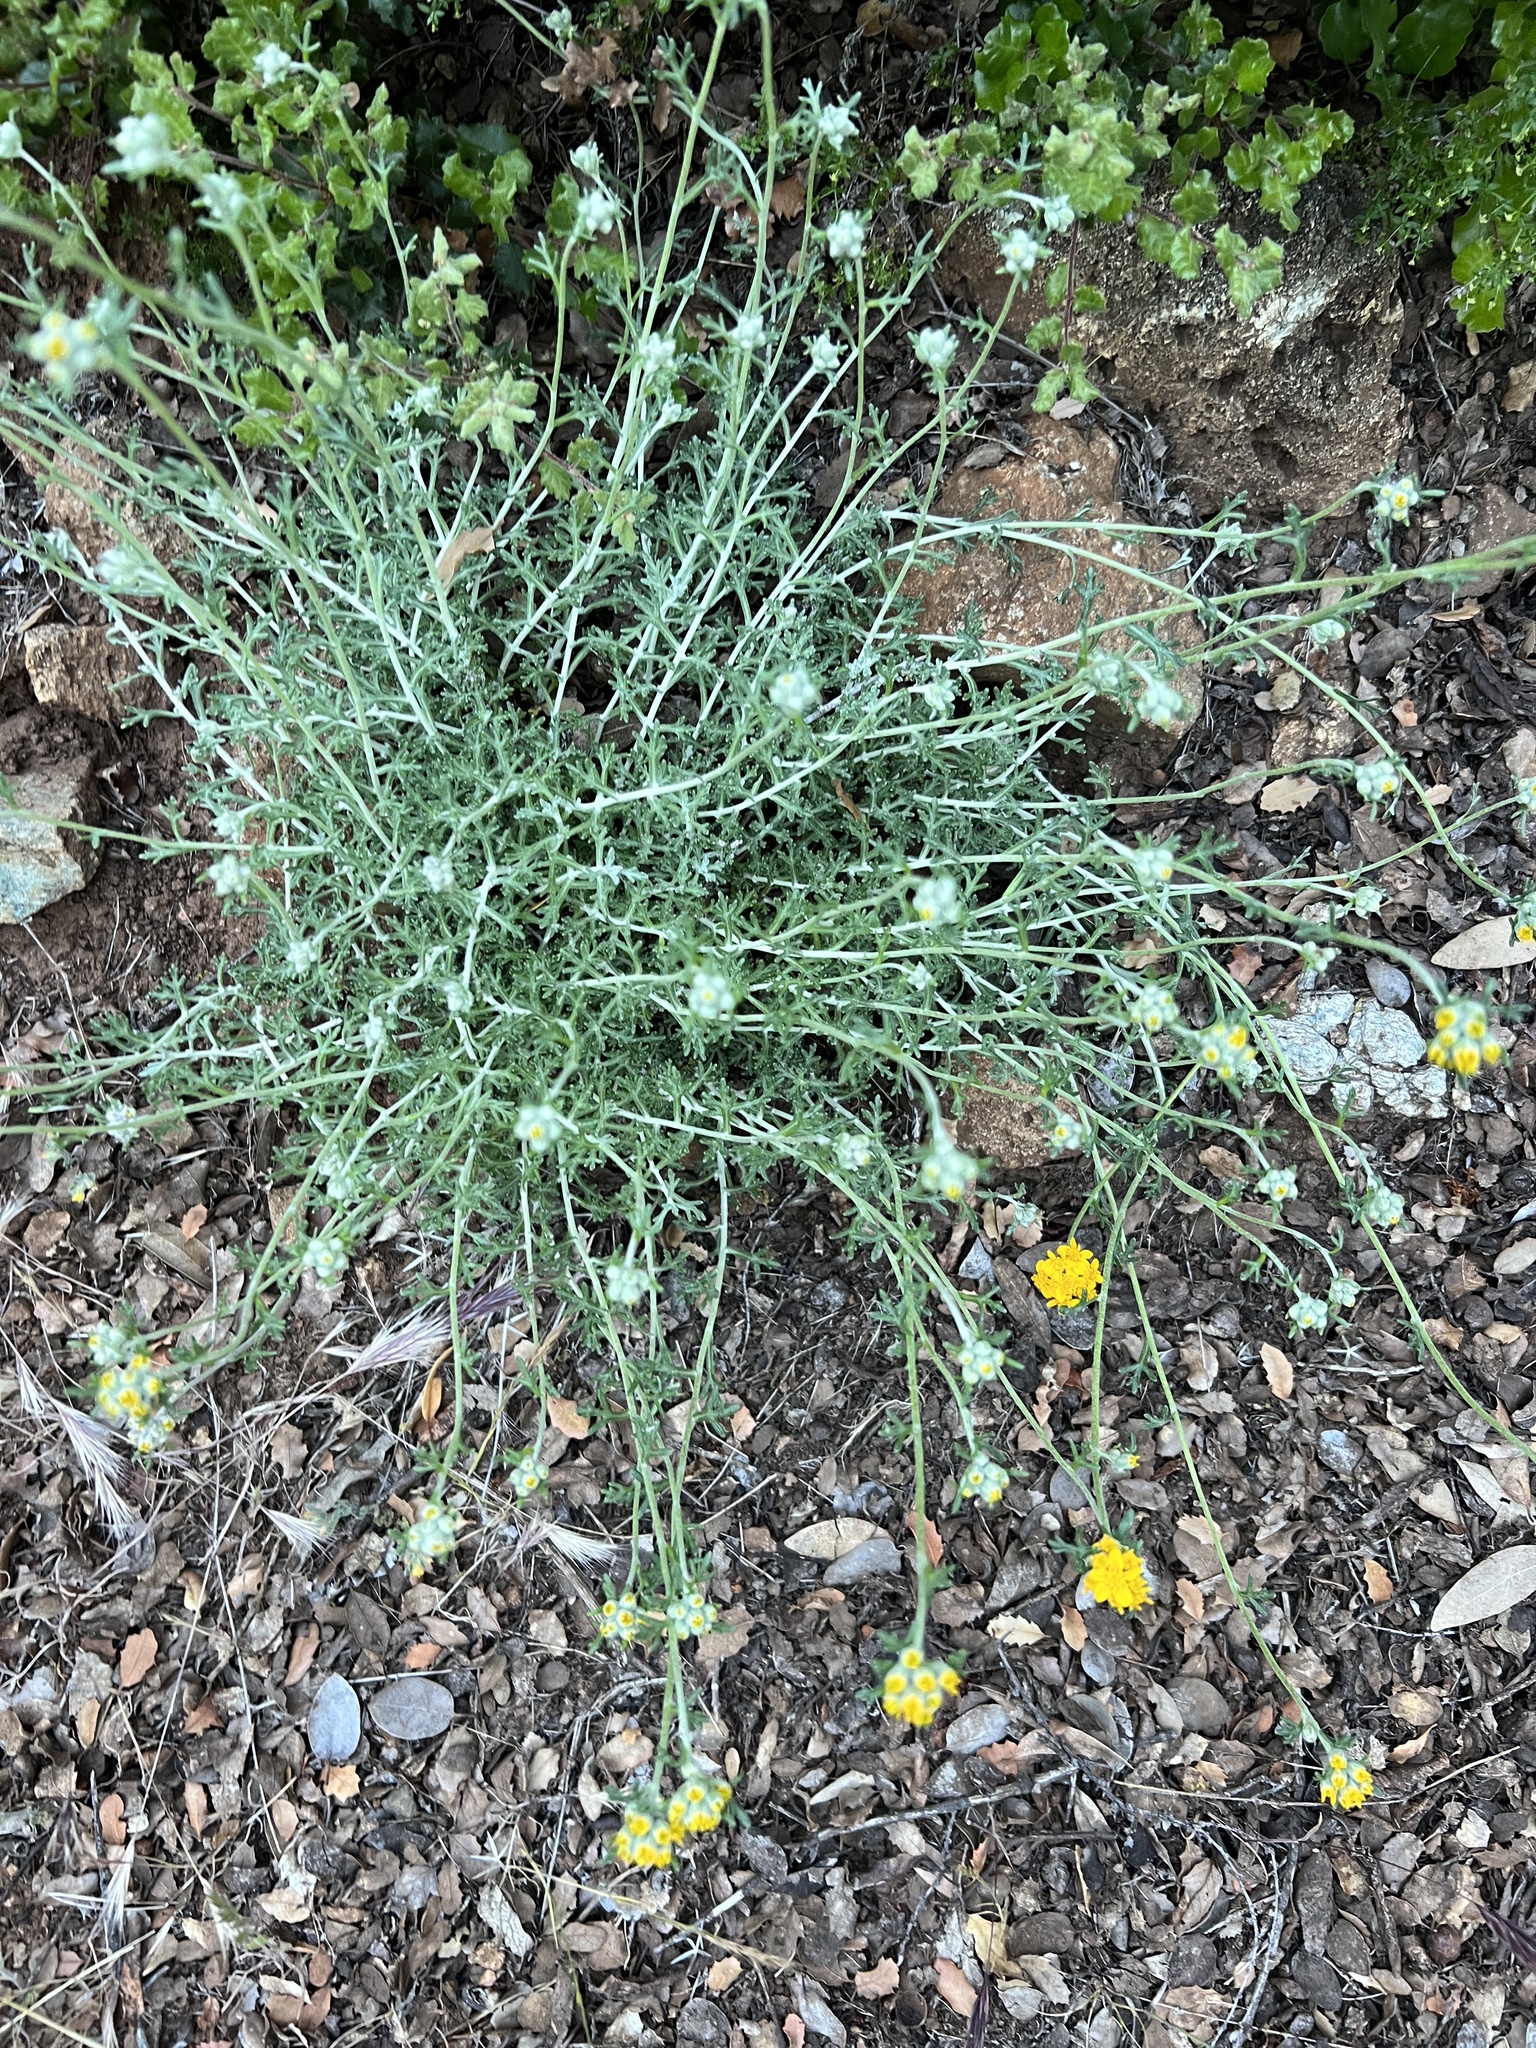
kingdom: Plantae
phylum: Tracheophyta
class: Magnoliopsida
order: Asterales
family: Asteraceae
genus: Eriophyllum
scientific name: Eriophyllum confertiflorum
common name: Golden-yarrow
